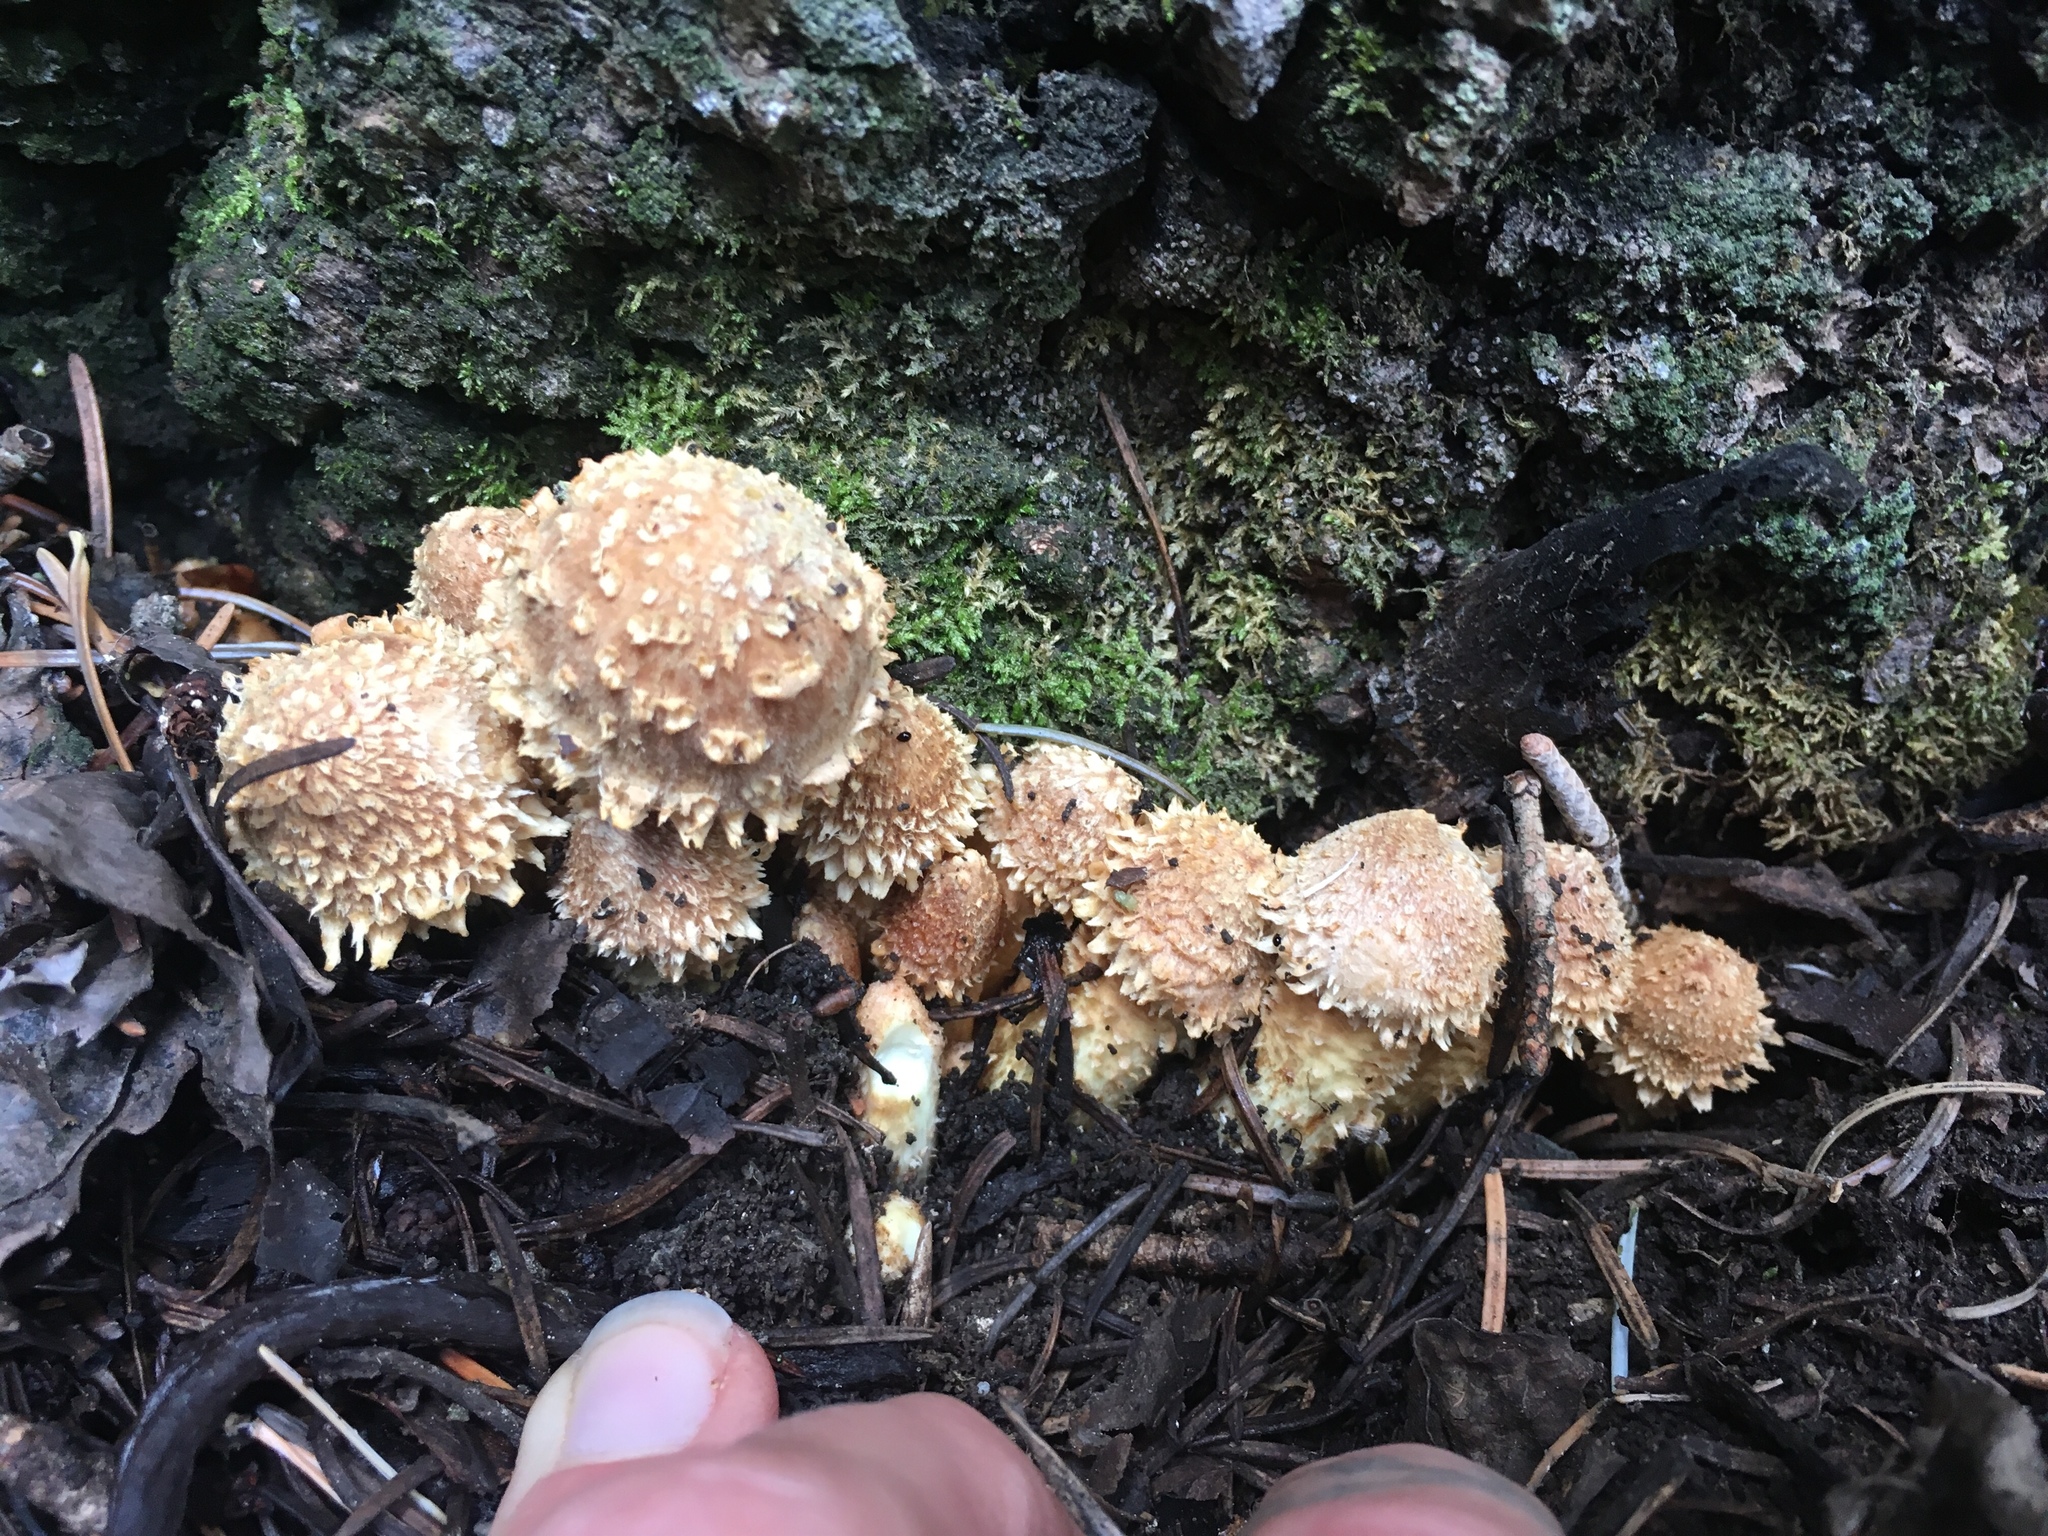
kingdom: Fungi
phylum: Basidiomycota
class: Agaricomycetes
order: Agaricales
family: Strophariaceae
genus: Pholiota
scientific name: Pholiota squarrosa
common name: Shaggy pholiota
